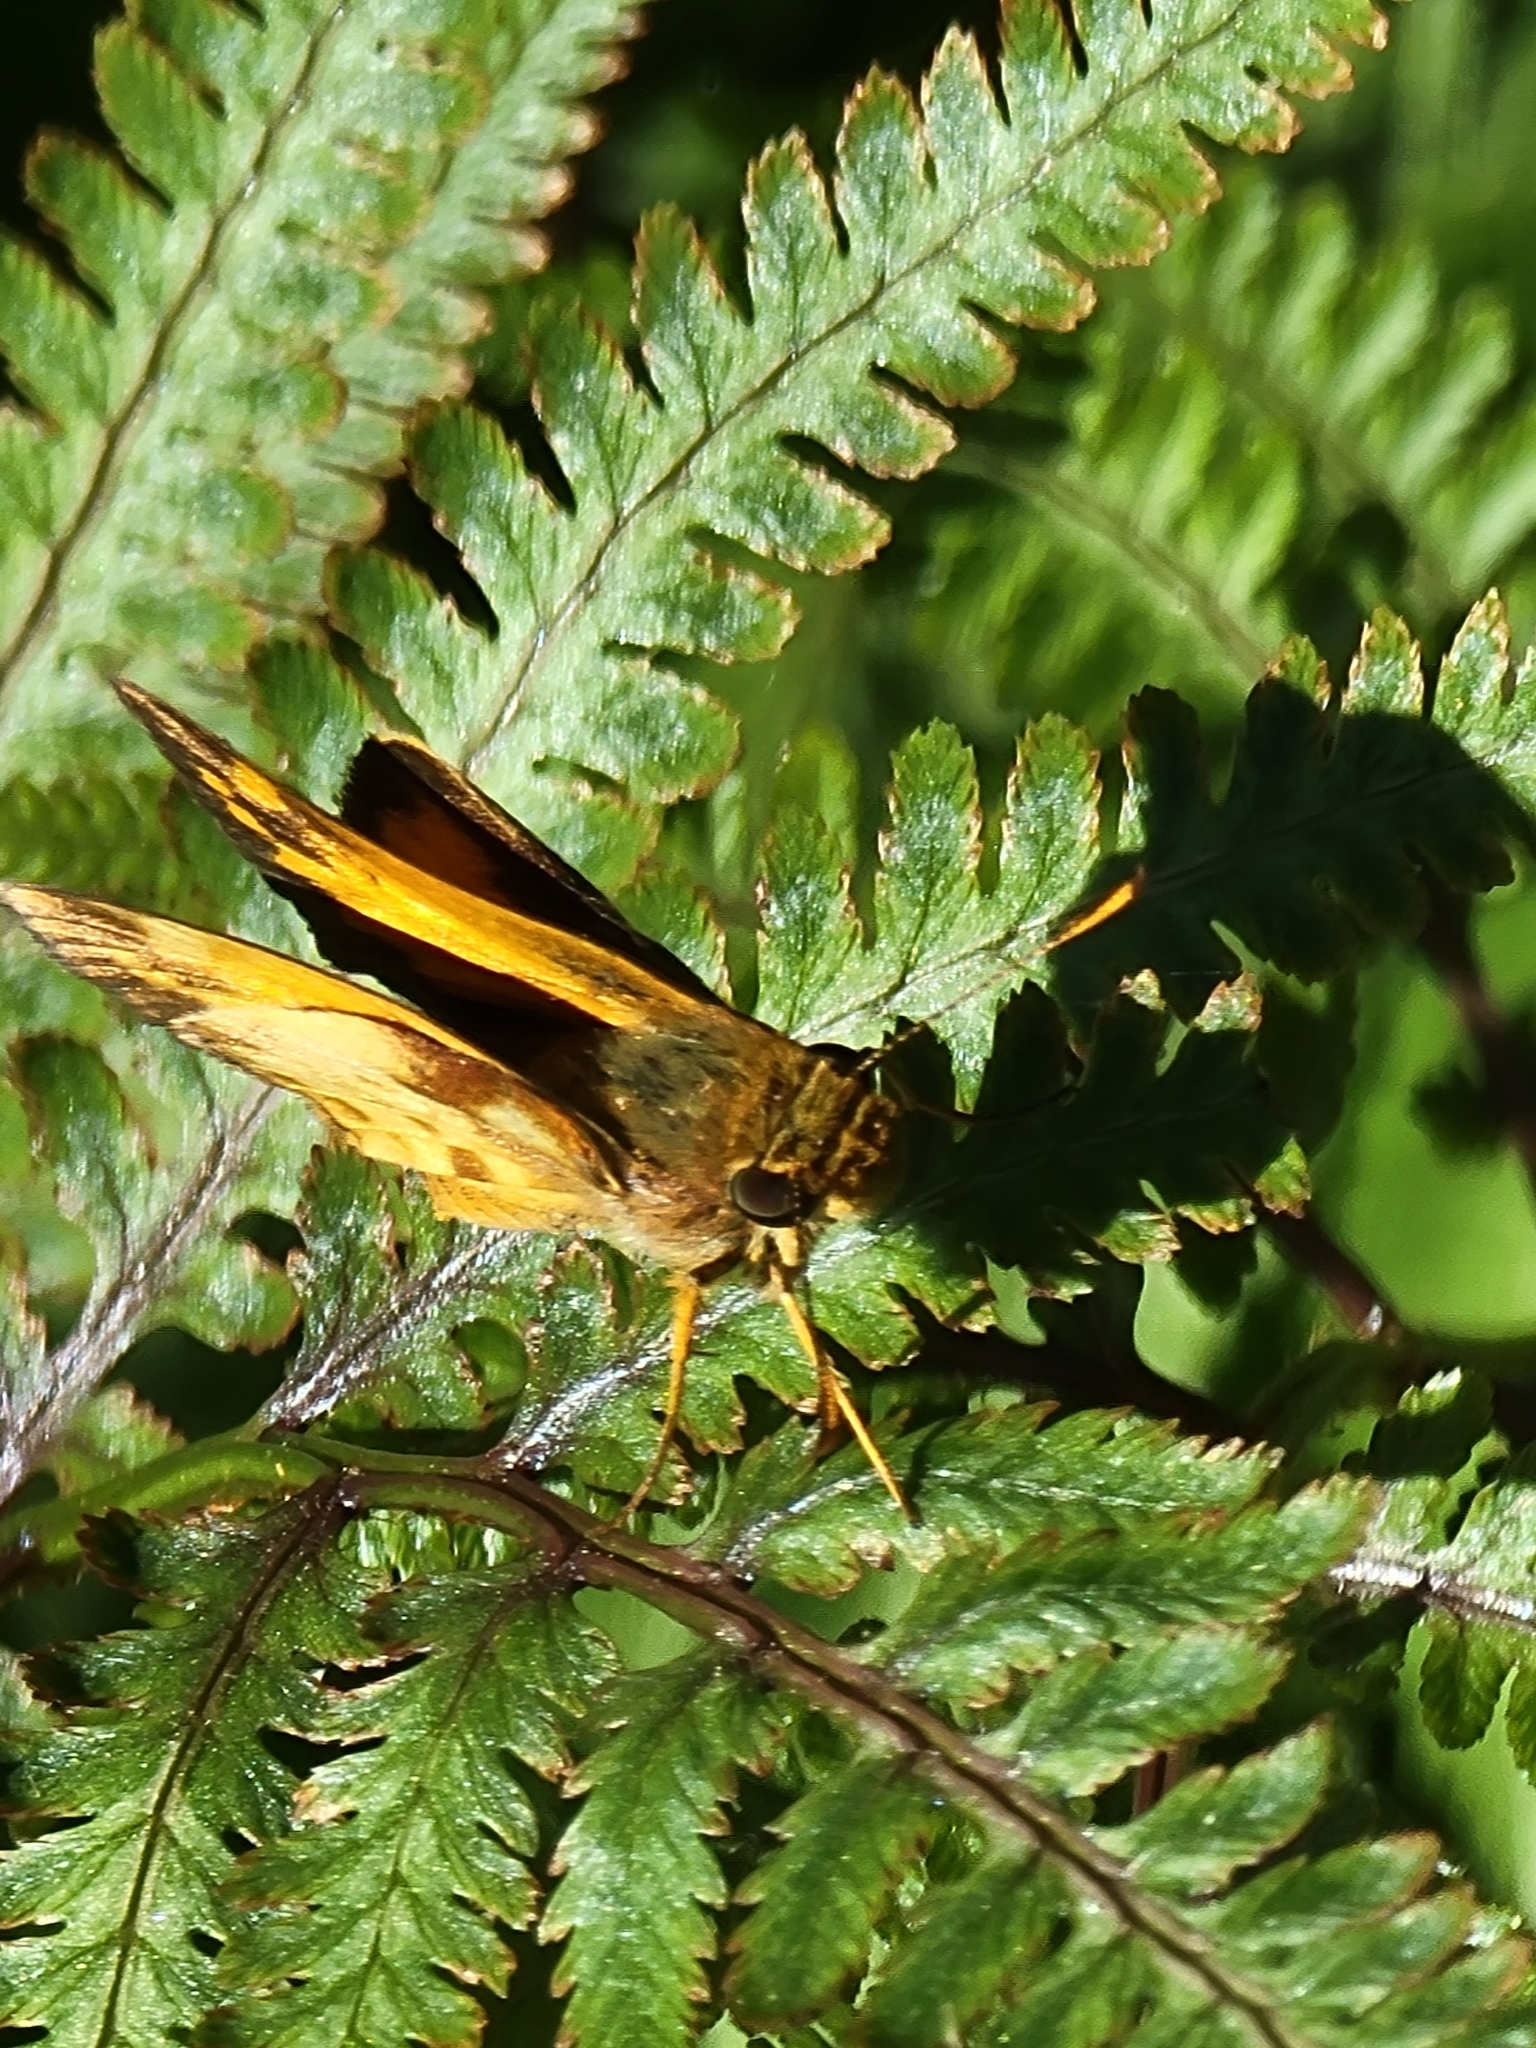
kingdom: Animalia
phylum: Arthropoda
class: Insecta
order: Lepidoptera
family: Hesperiidae
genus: Lon
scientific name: Lon zabulon
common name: Zabulon skipper
